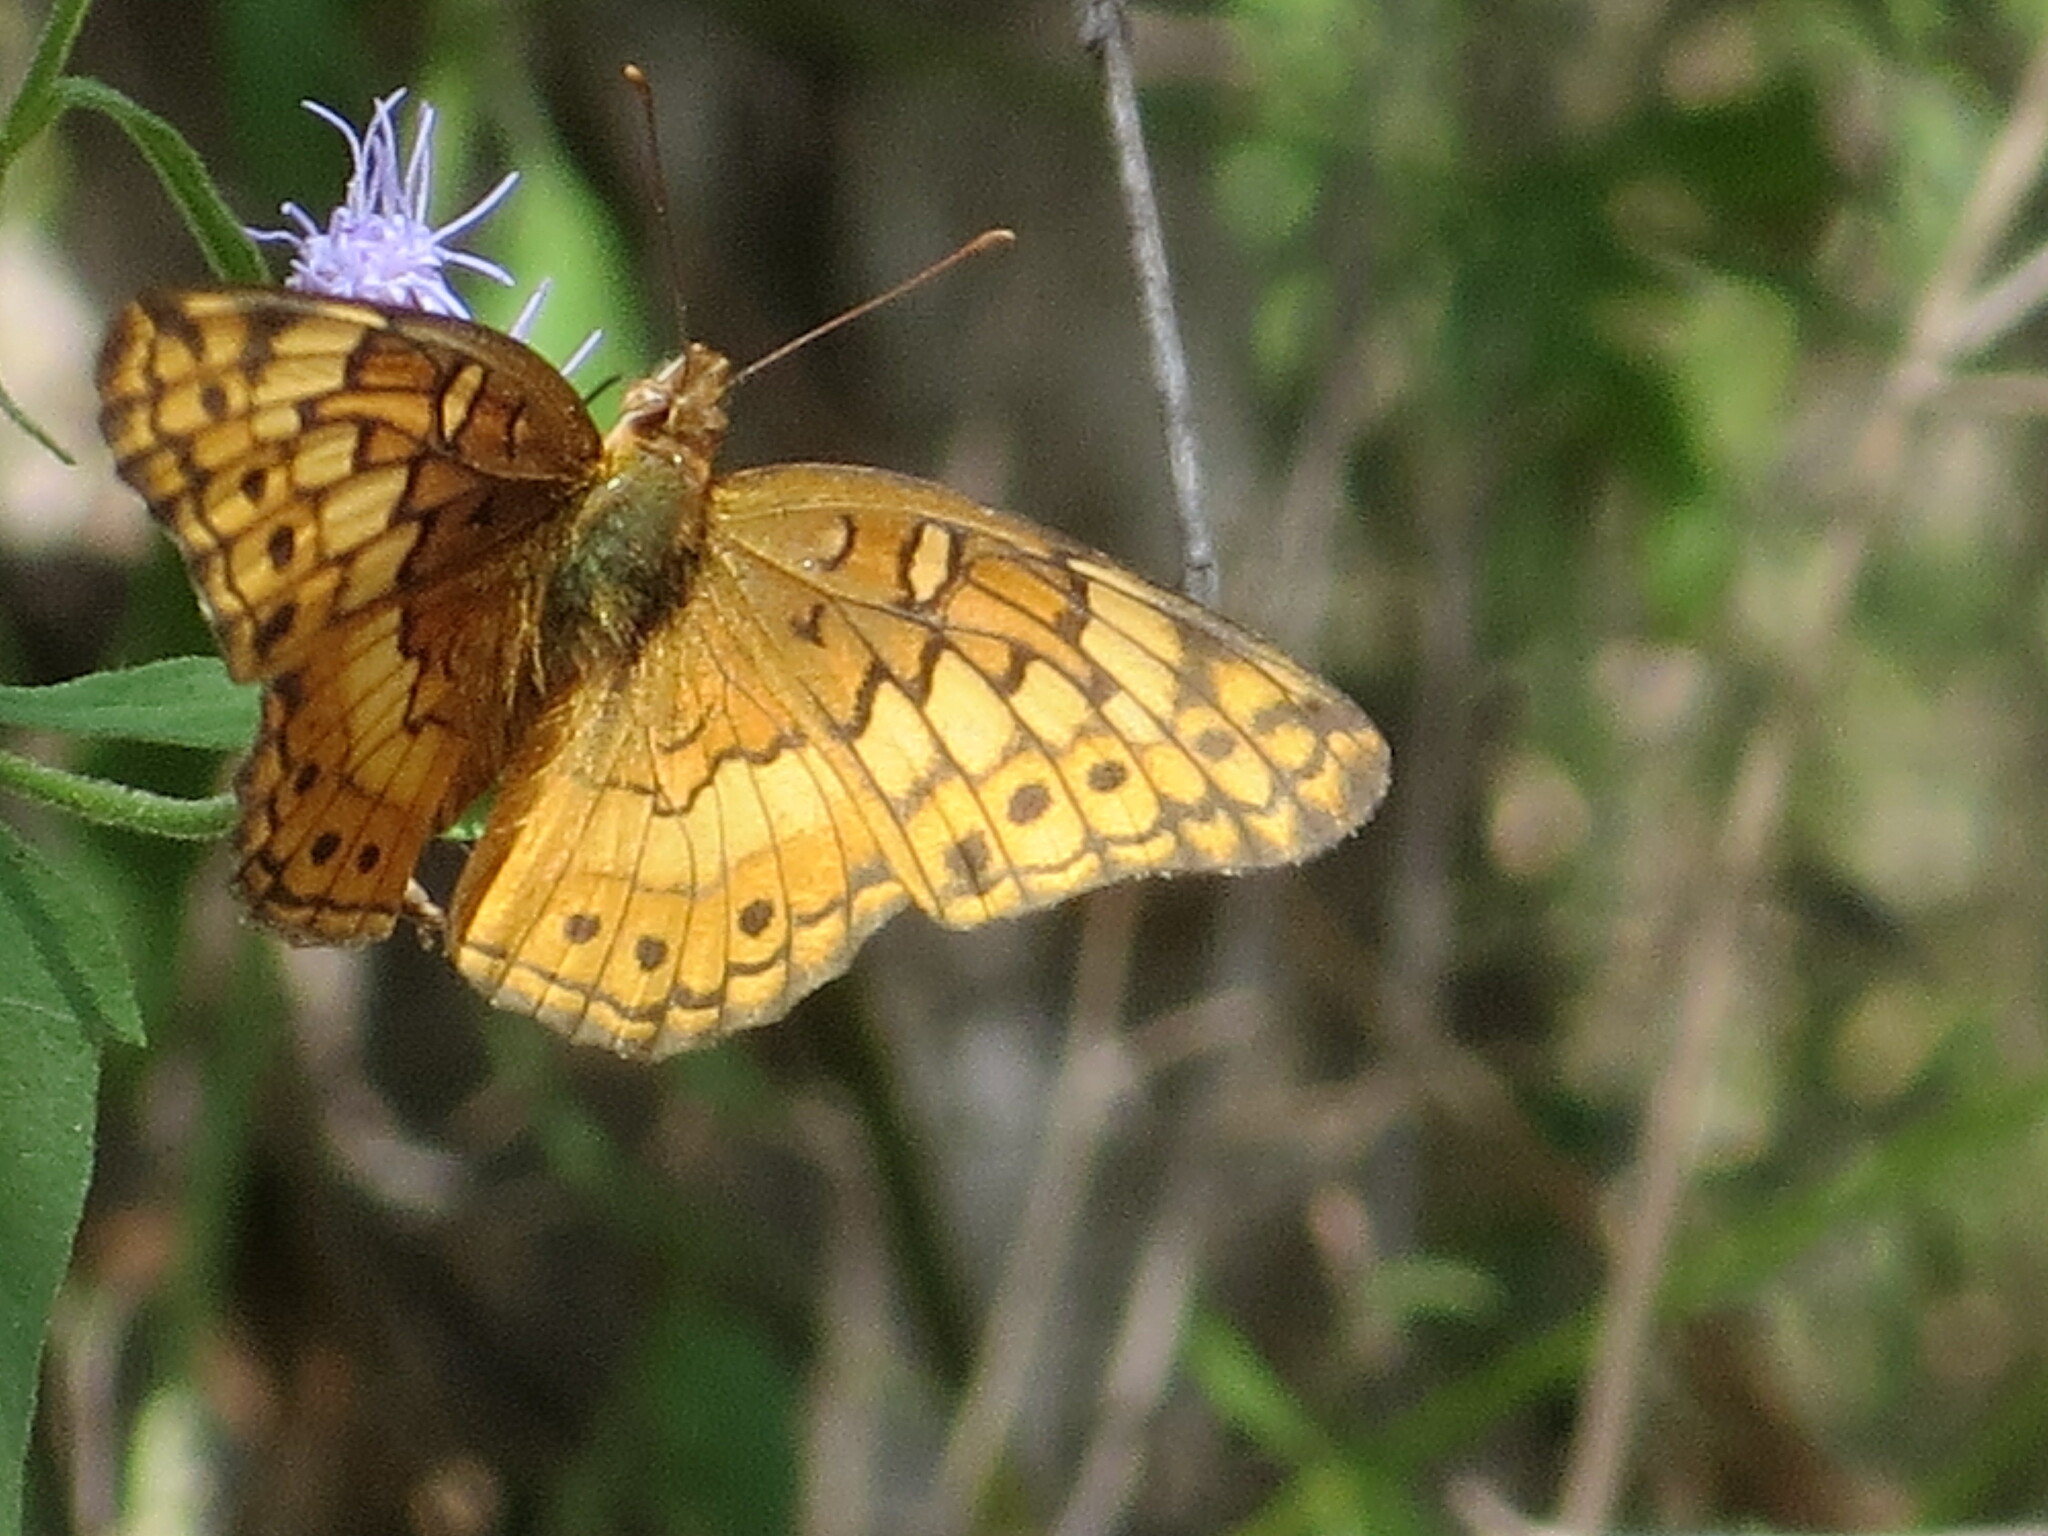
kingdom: Animalia
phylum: Arthropoda
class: Insecta
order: Lepidoptera
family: Nymphalidae
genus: Euptoieta
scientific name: Euptoieta claudia
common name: Variegated fritillary
